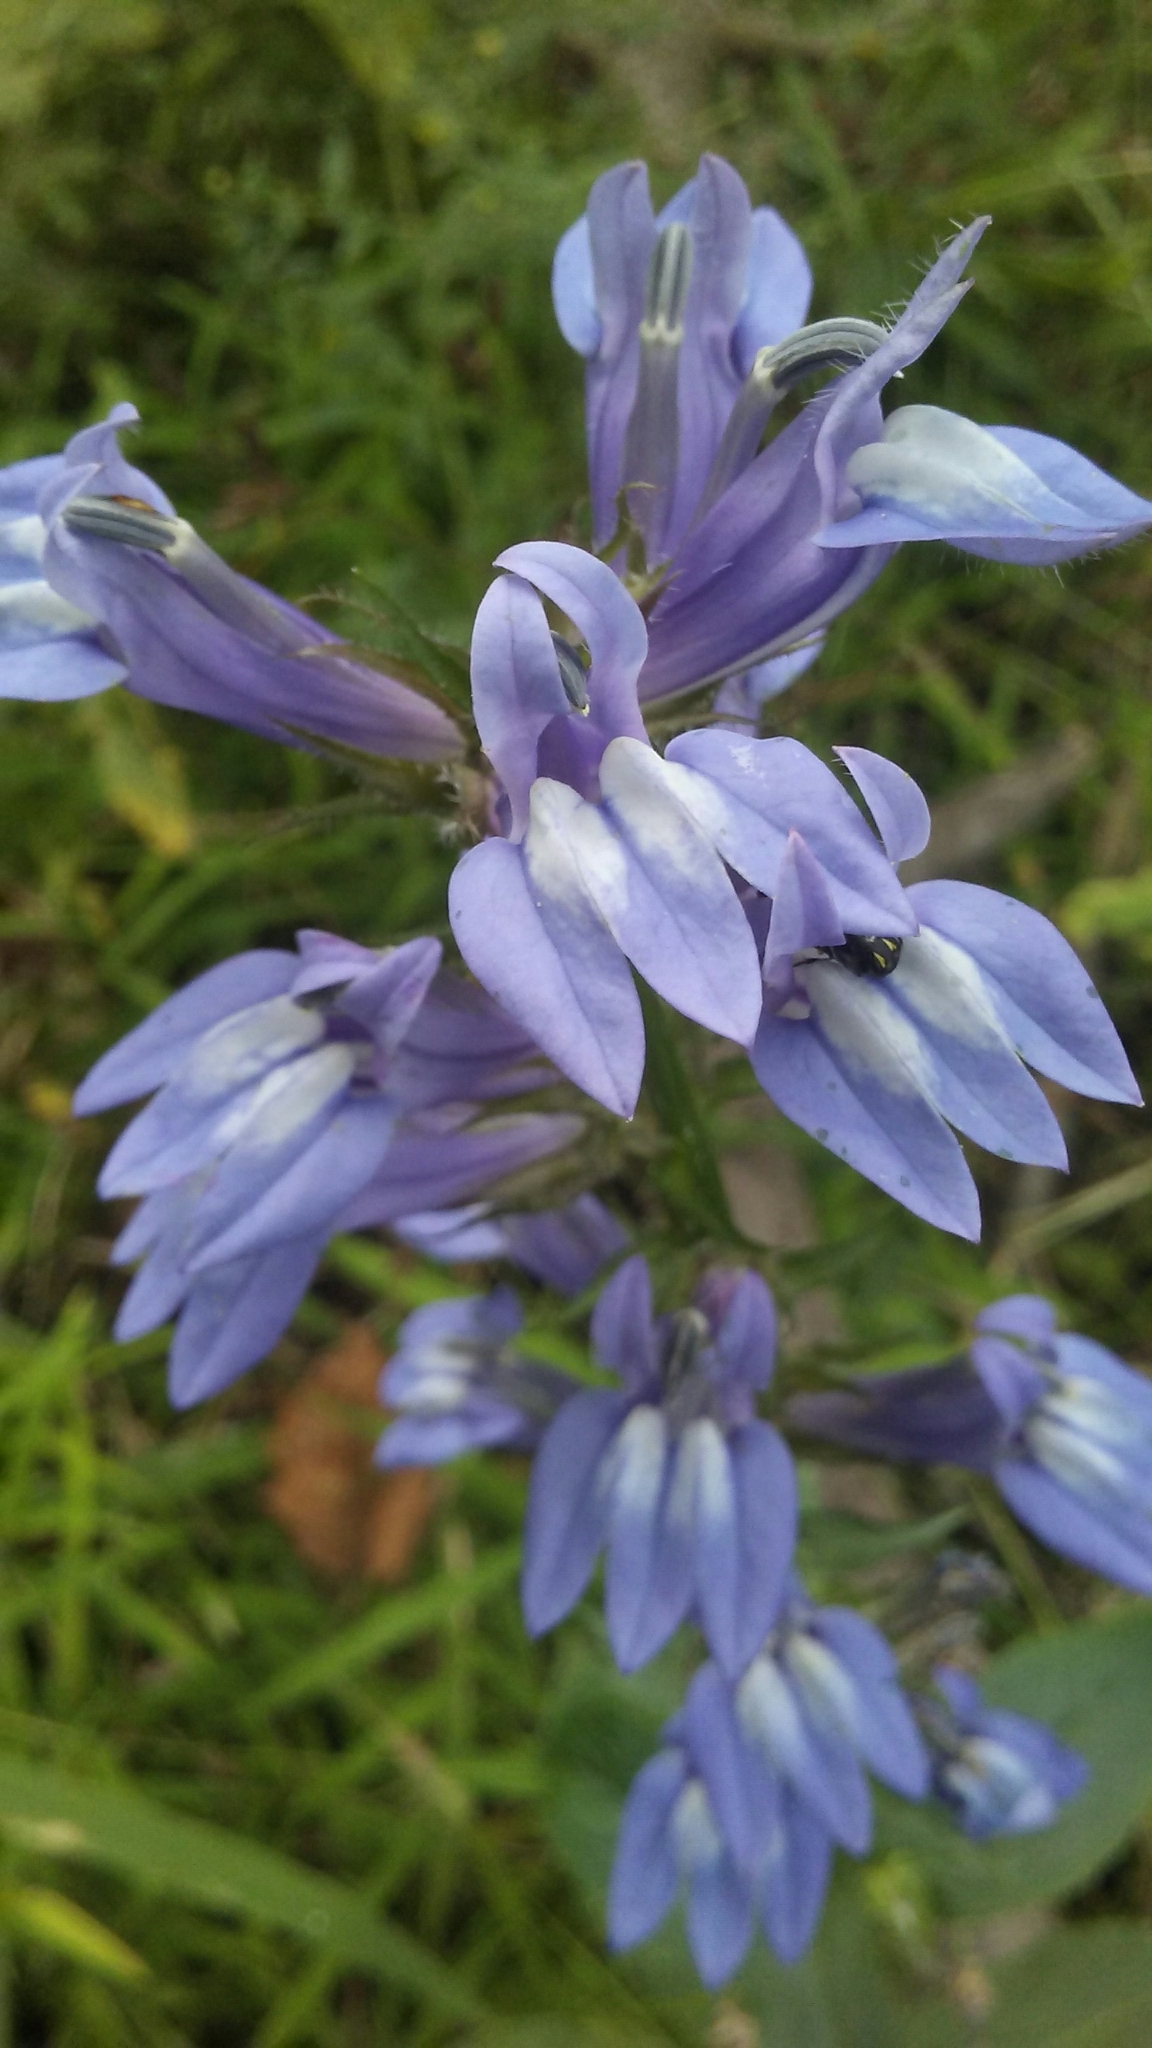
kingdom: Plantae
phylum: Tracheophyta
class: Magnoliopsida
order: Asterales
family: Campanulaceae
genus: Lobelia
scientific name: Lobelia siphilitica
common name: Great lobelia
